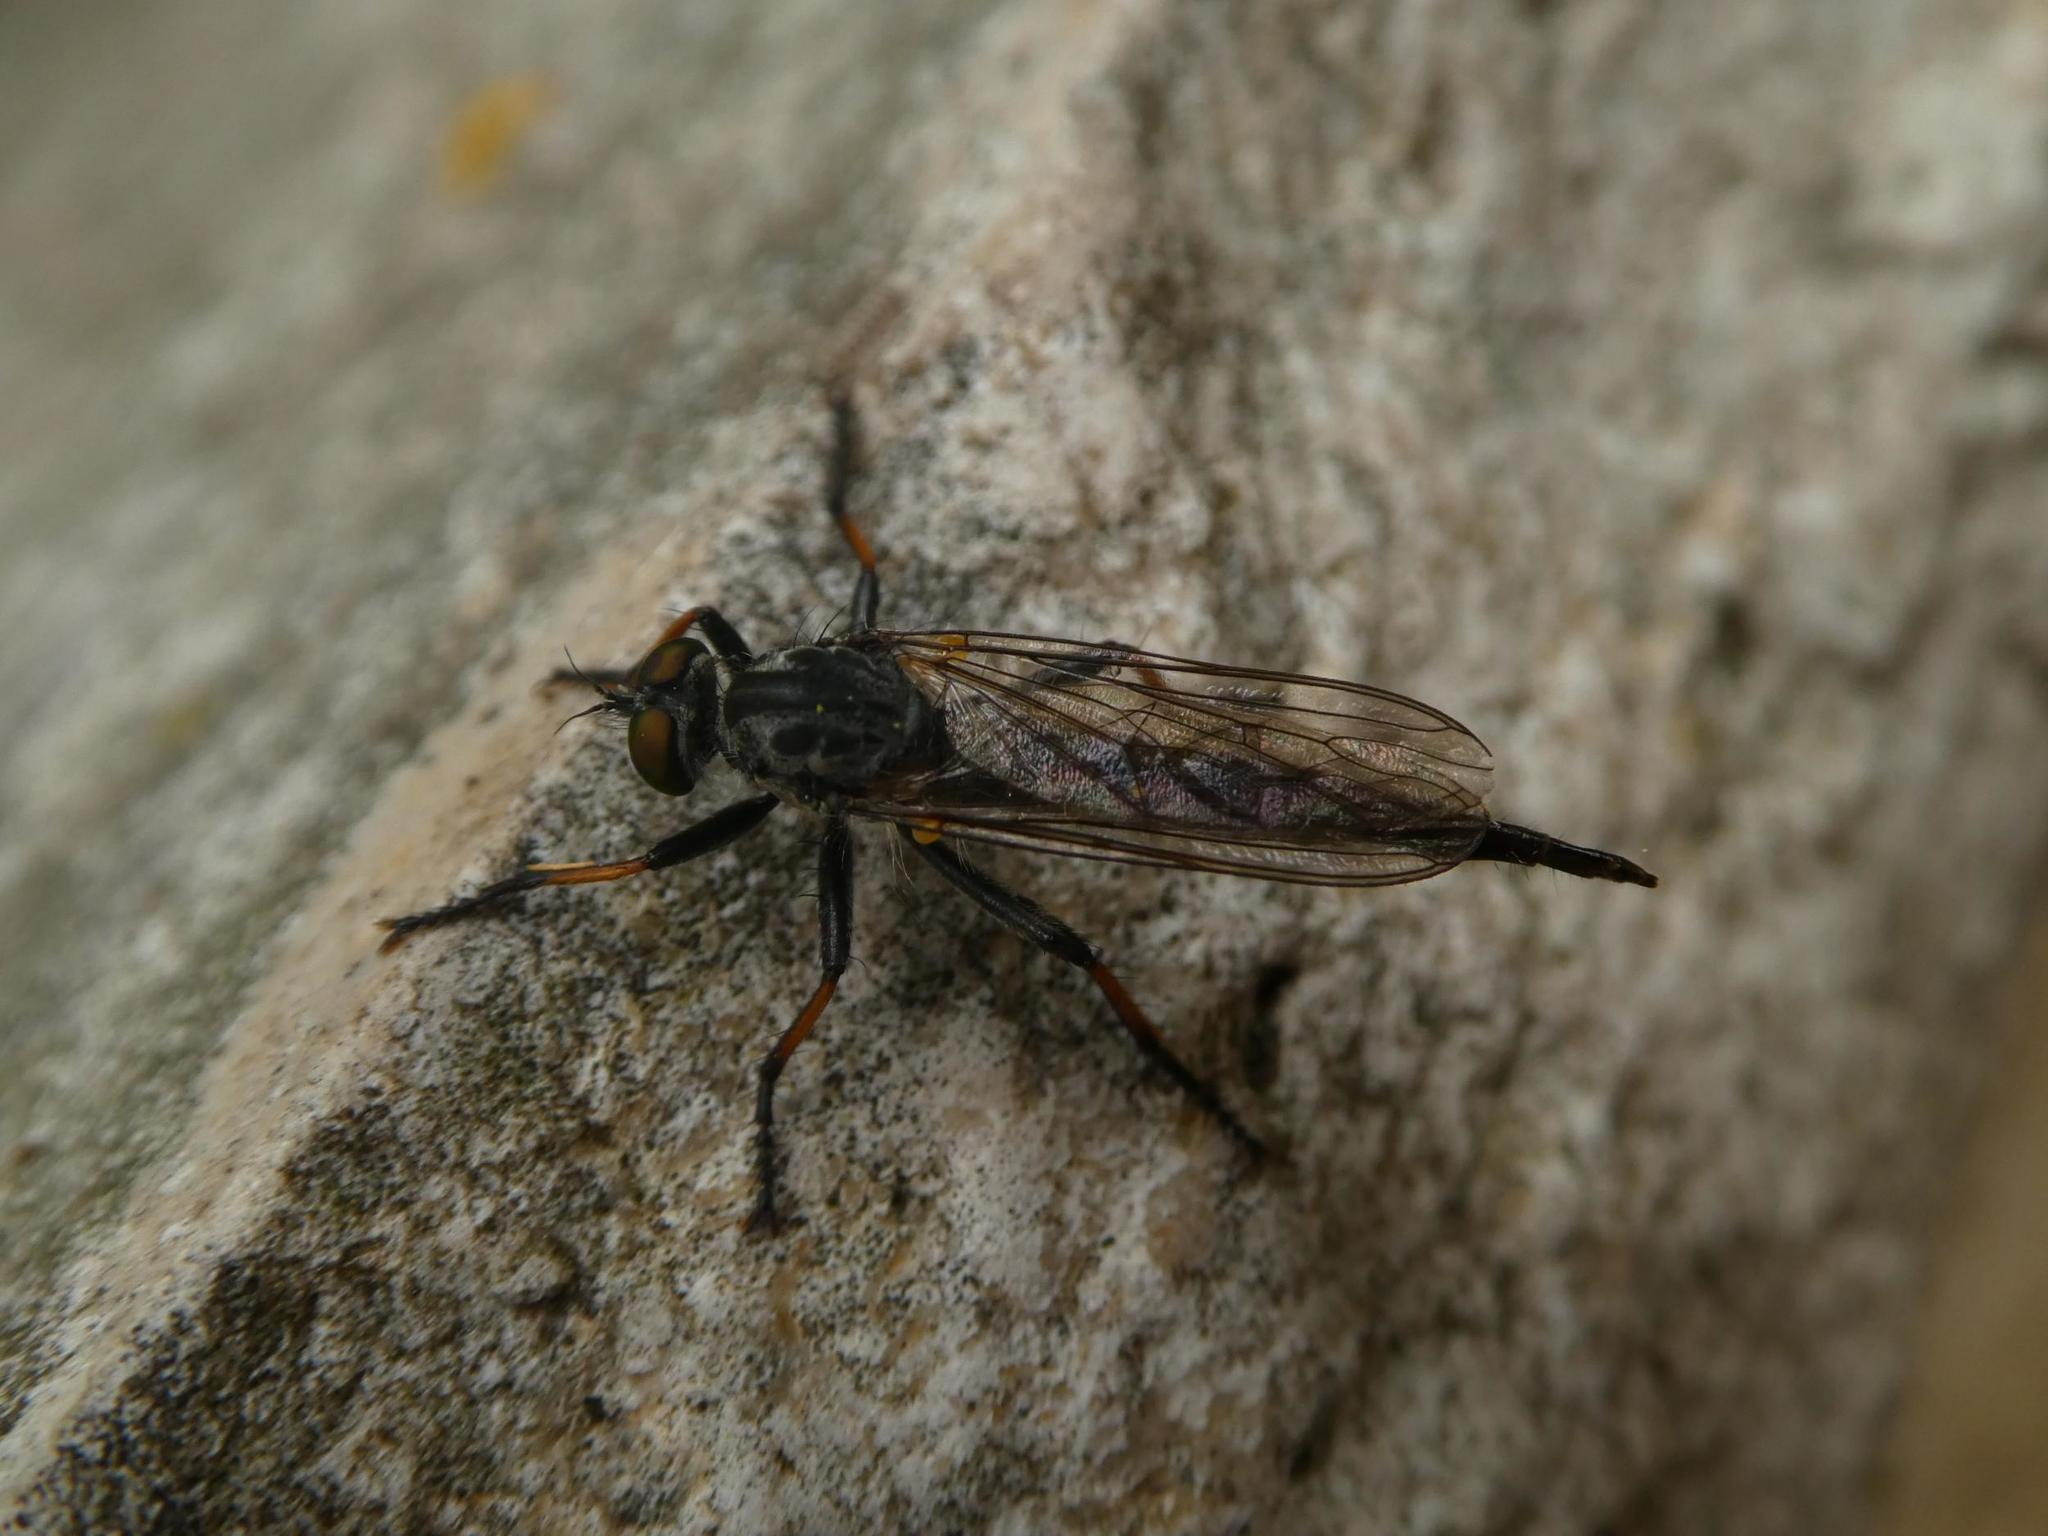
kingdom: Animalia
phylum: Arthropoda
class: Insecta
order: Diptera
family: Asilidae
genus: Neoitamus
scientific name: Neoitamus cyanurus
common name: Common awl robberfly
